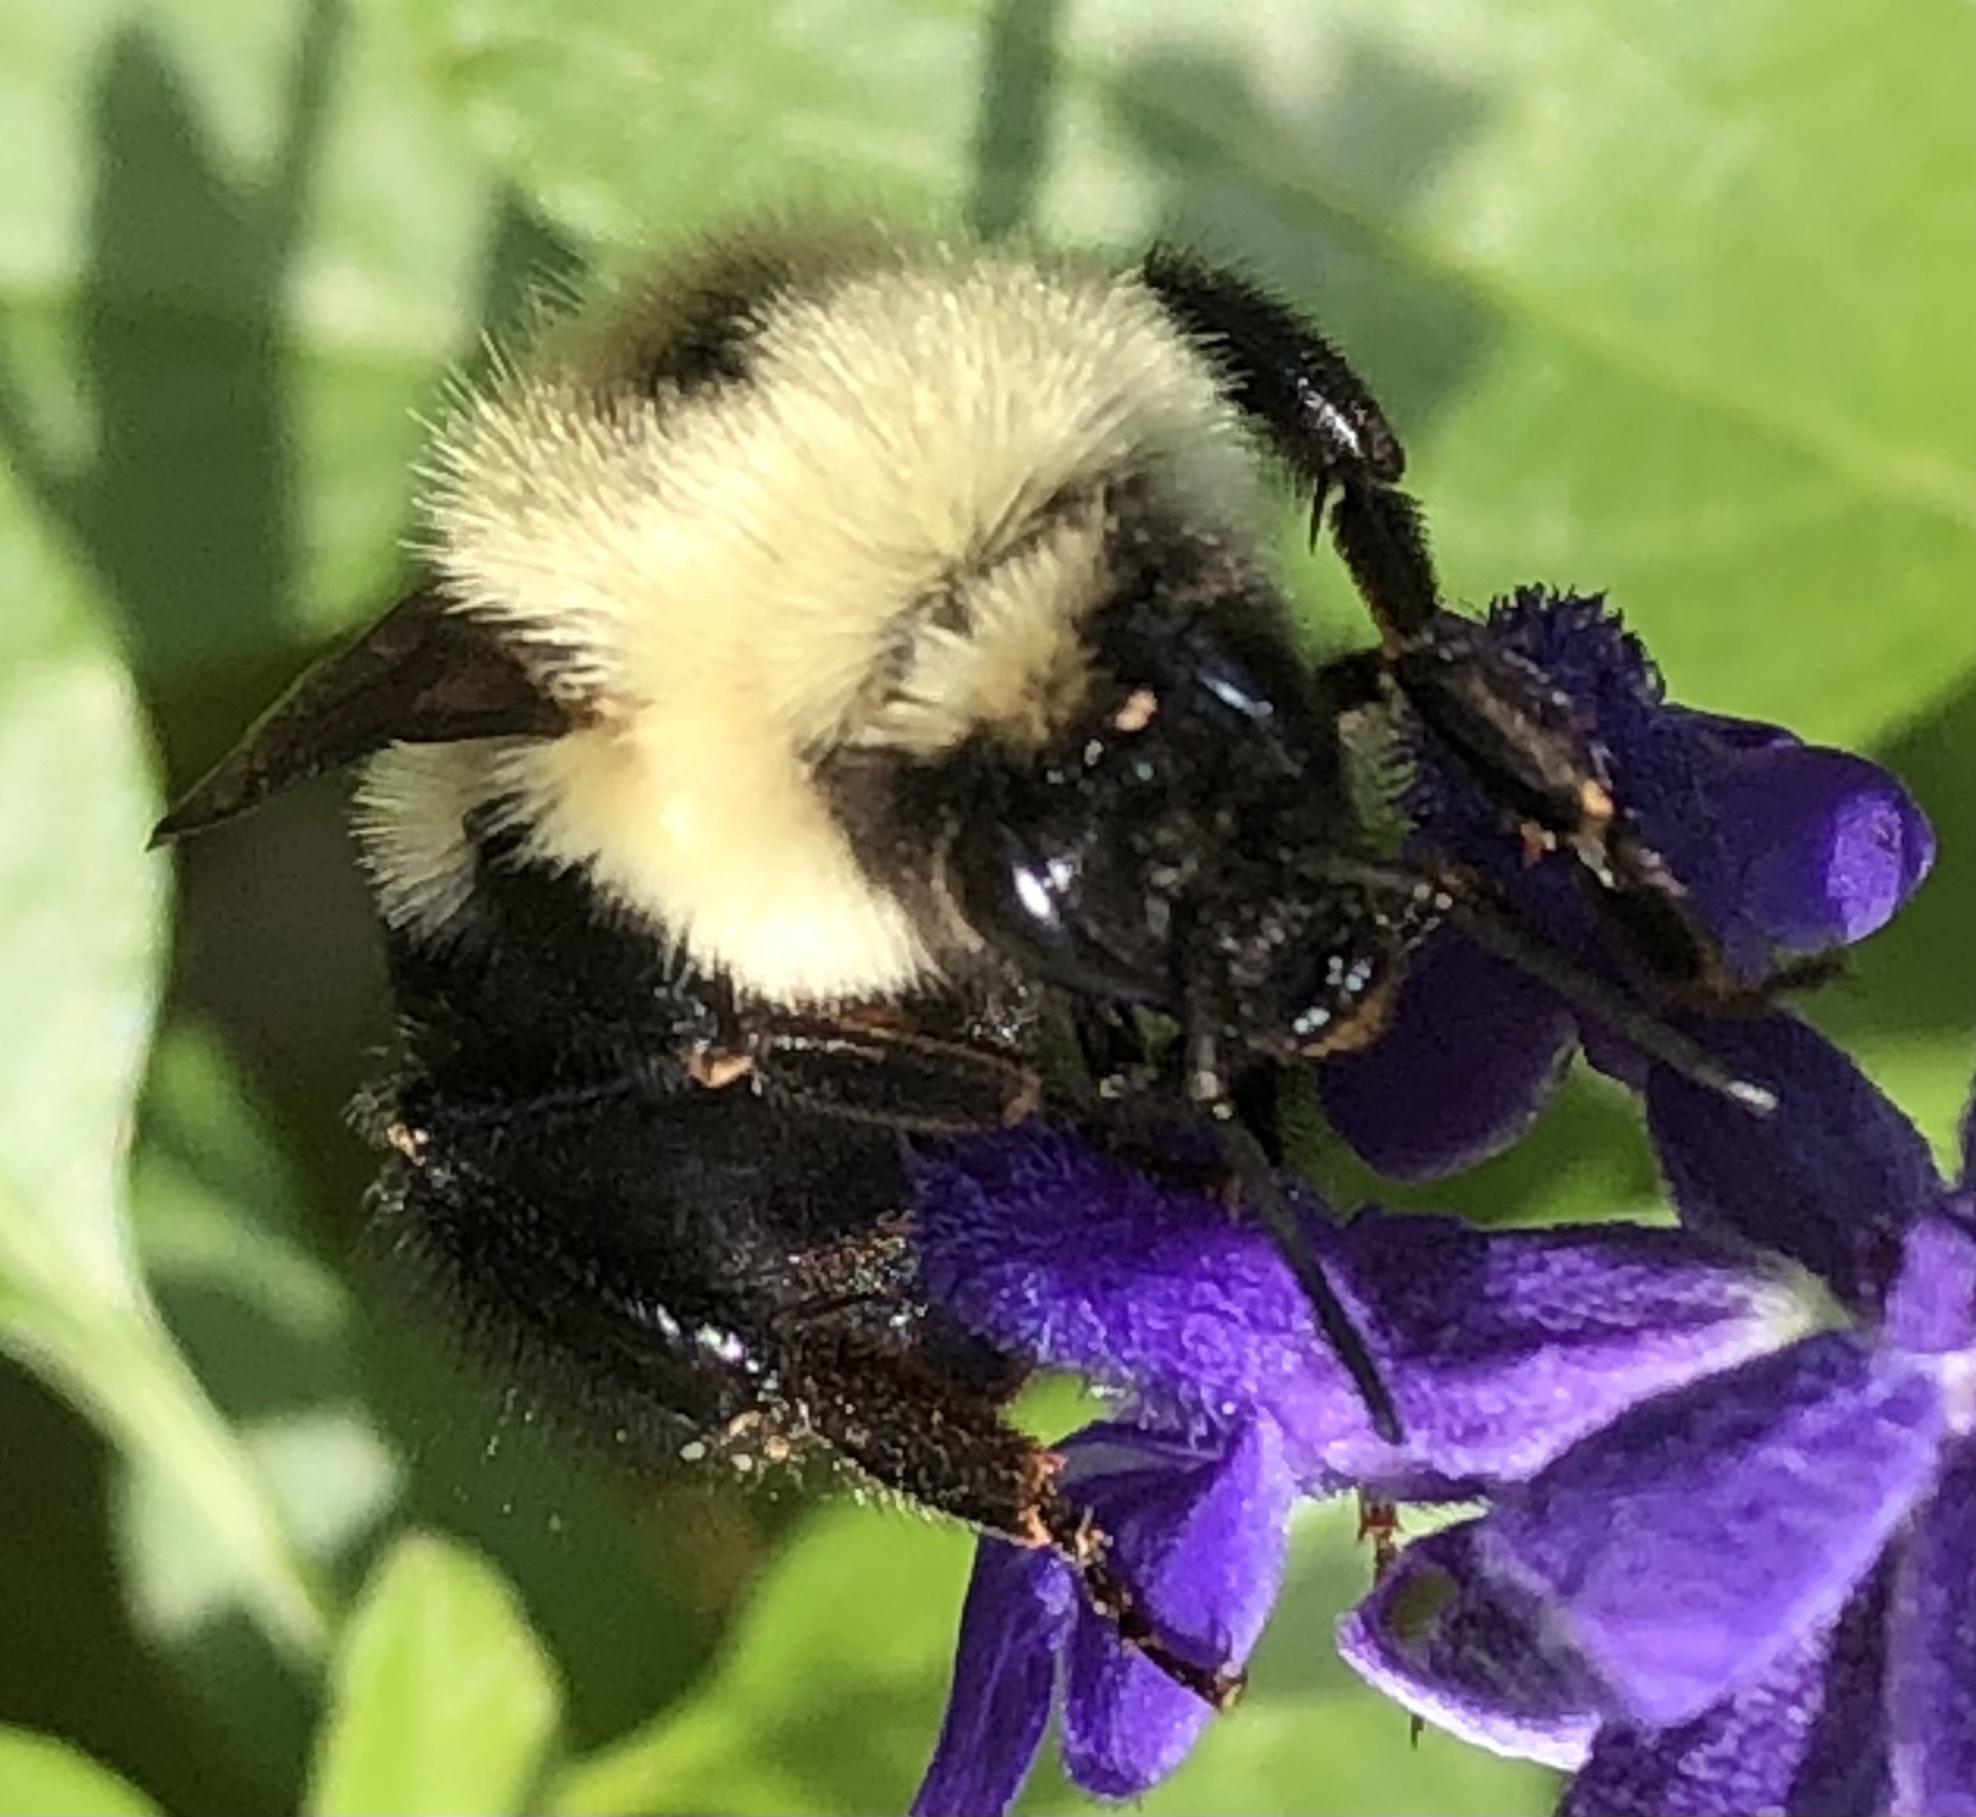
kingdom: Animalia
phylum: Arthropoda
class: Insecta
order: Hymenoptera
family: Apidae
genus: Bombus
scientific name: Bombus bimaculatus
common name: Two-spotted bumble bee
